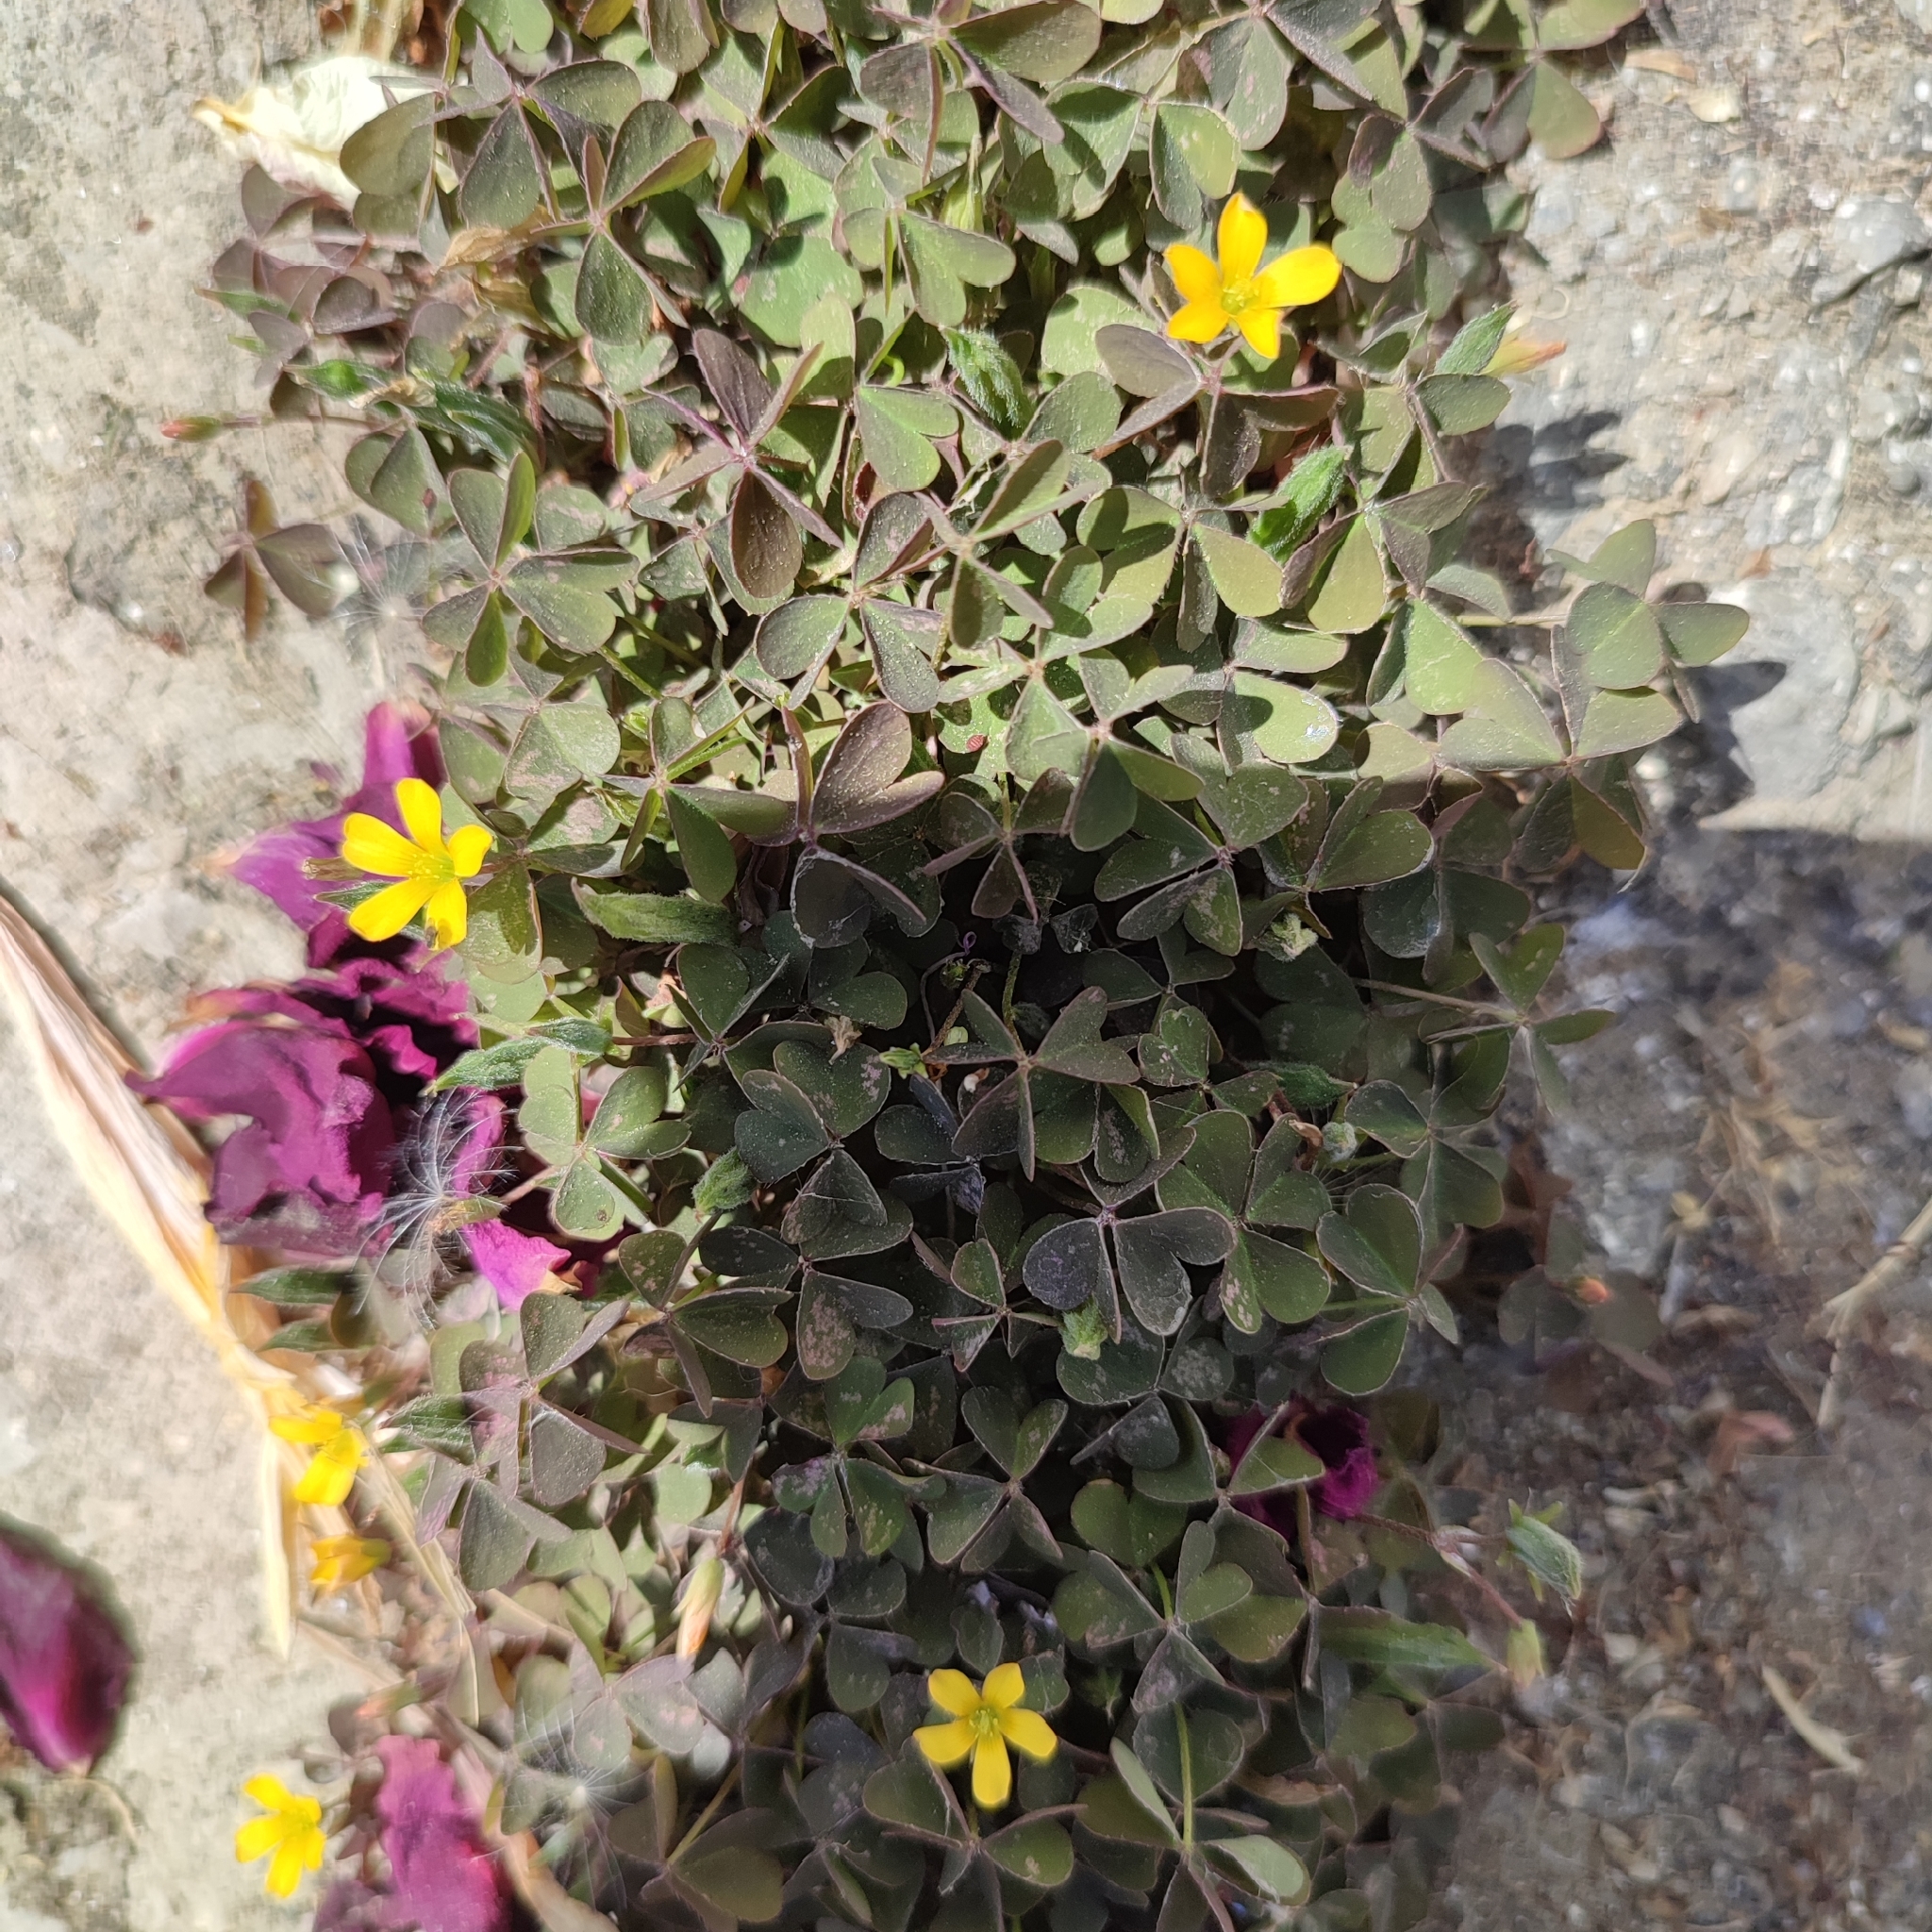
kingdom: Plantae
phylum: Tracheophyta
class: Magnoliopsida
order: Oxalidales
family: Oxalidaceae
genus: Oxalis
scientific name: Oxalis corniculata
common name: Procumbent yellow-sorrel
